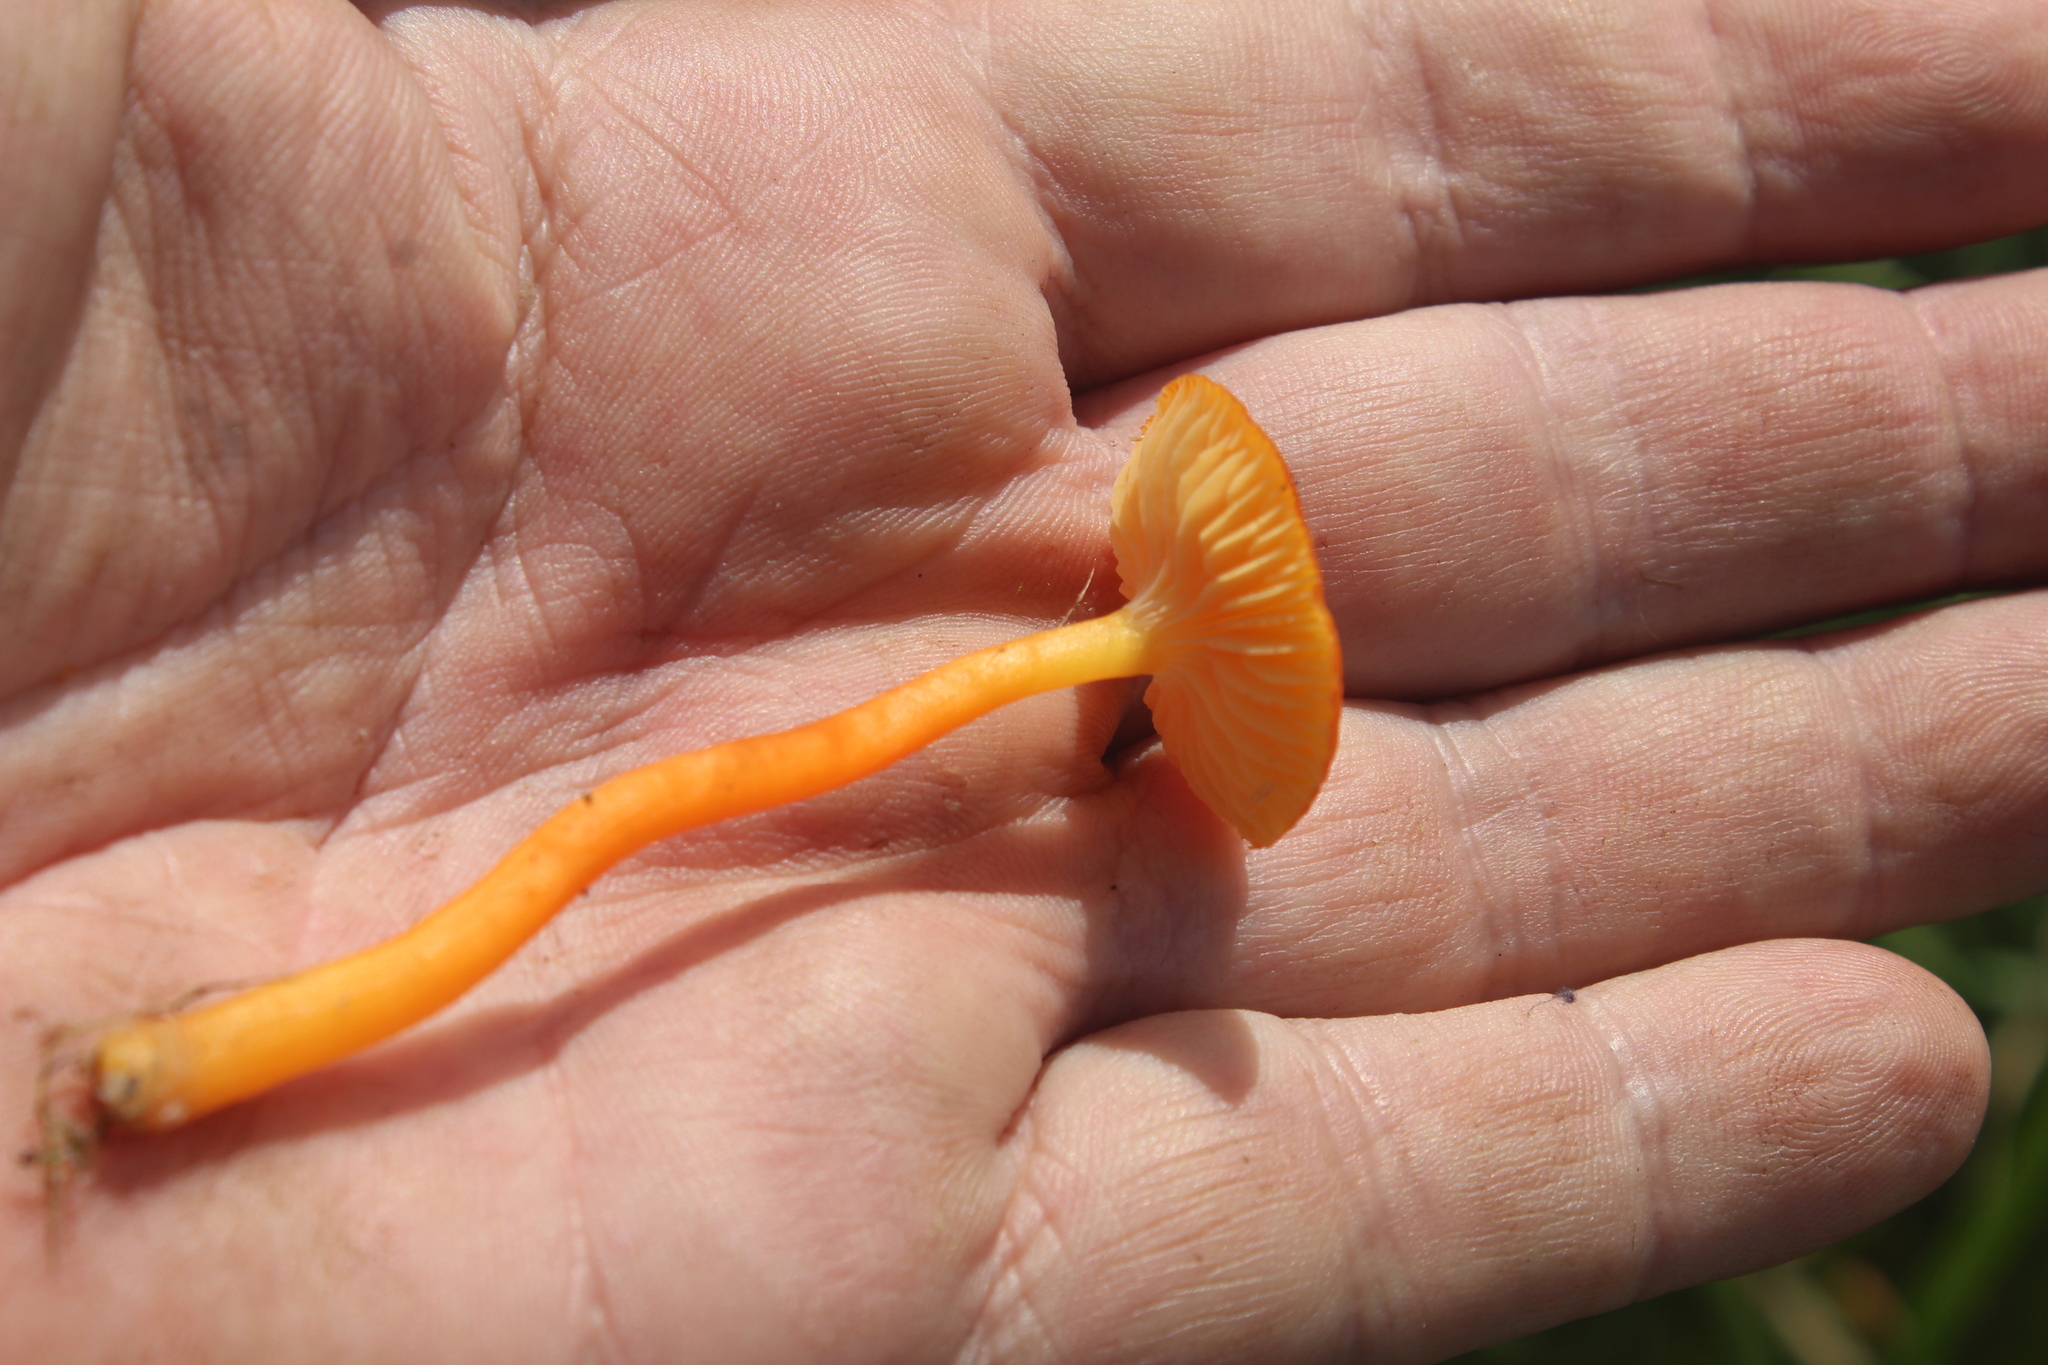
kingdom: Fungi
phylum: Basidiomycota
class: Agaricomycetes
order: Agaricales
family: Hygrophoraceae
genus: Hygrocybe
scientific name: Hygrocybe insipida
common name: Spangle waxcap
